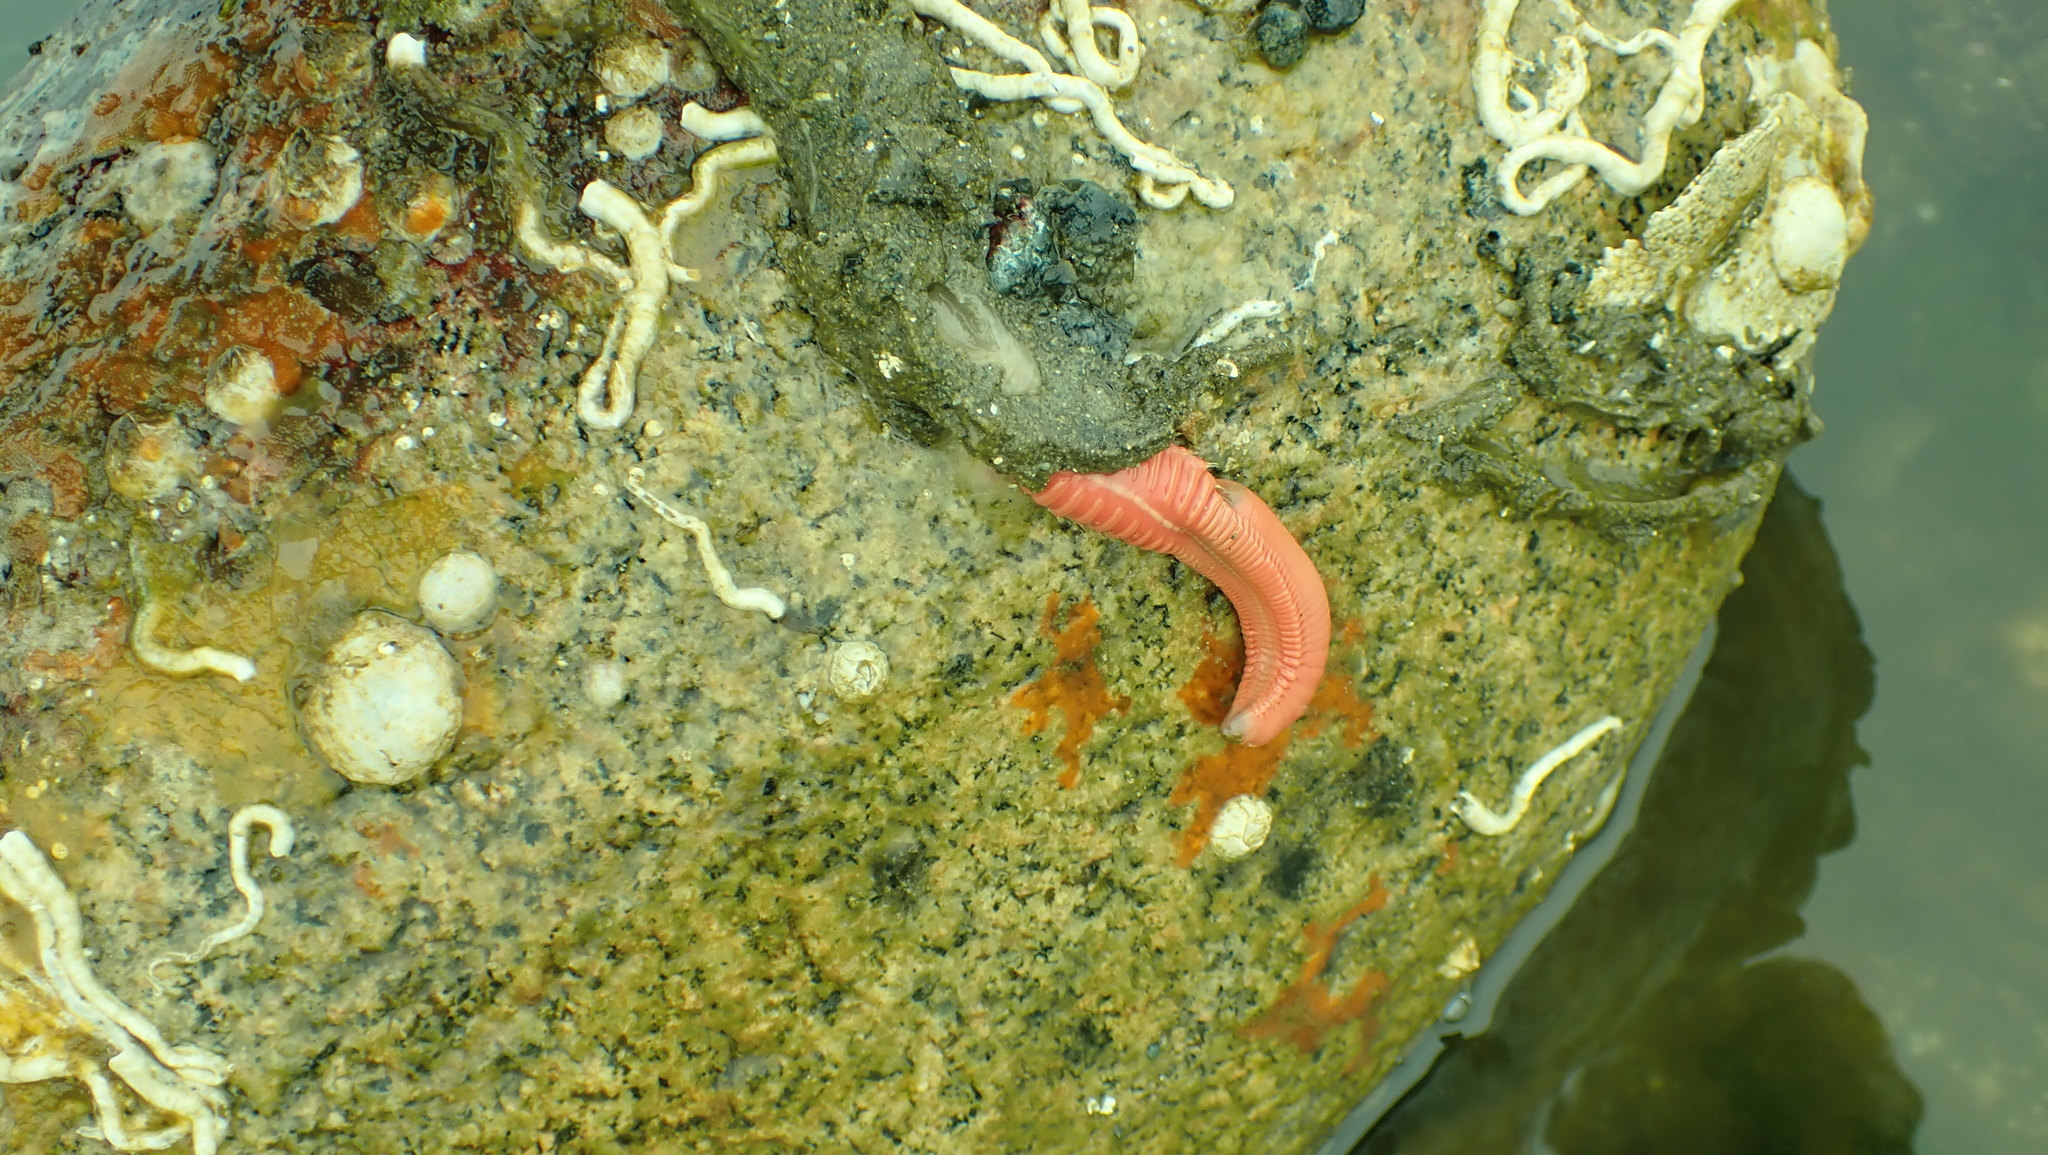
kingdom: Animalia
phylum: Annelida
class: Polychaeta
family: Terebellidae
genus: Neoamphitrite
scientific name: Neoamphitrite robusta
